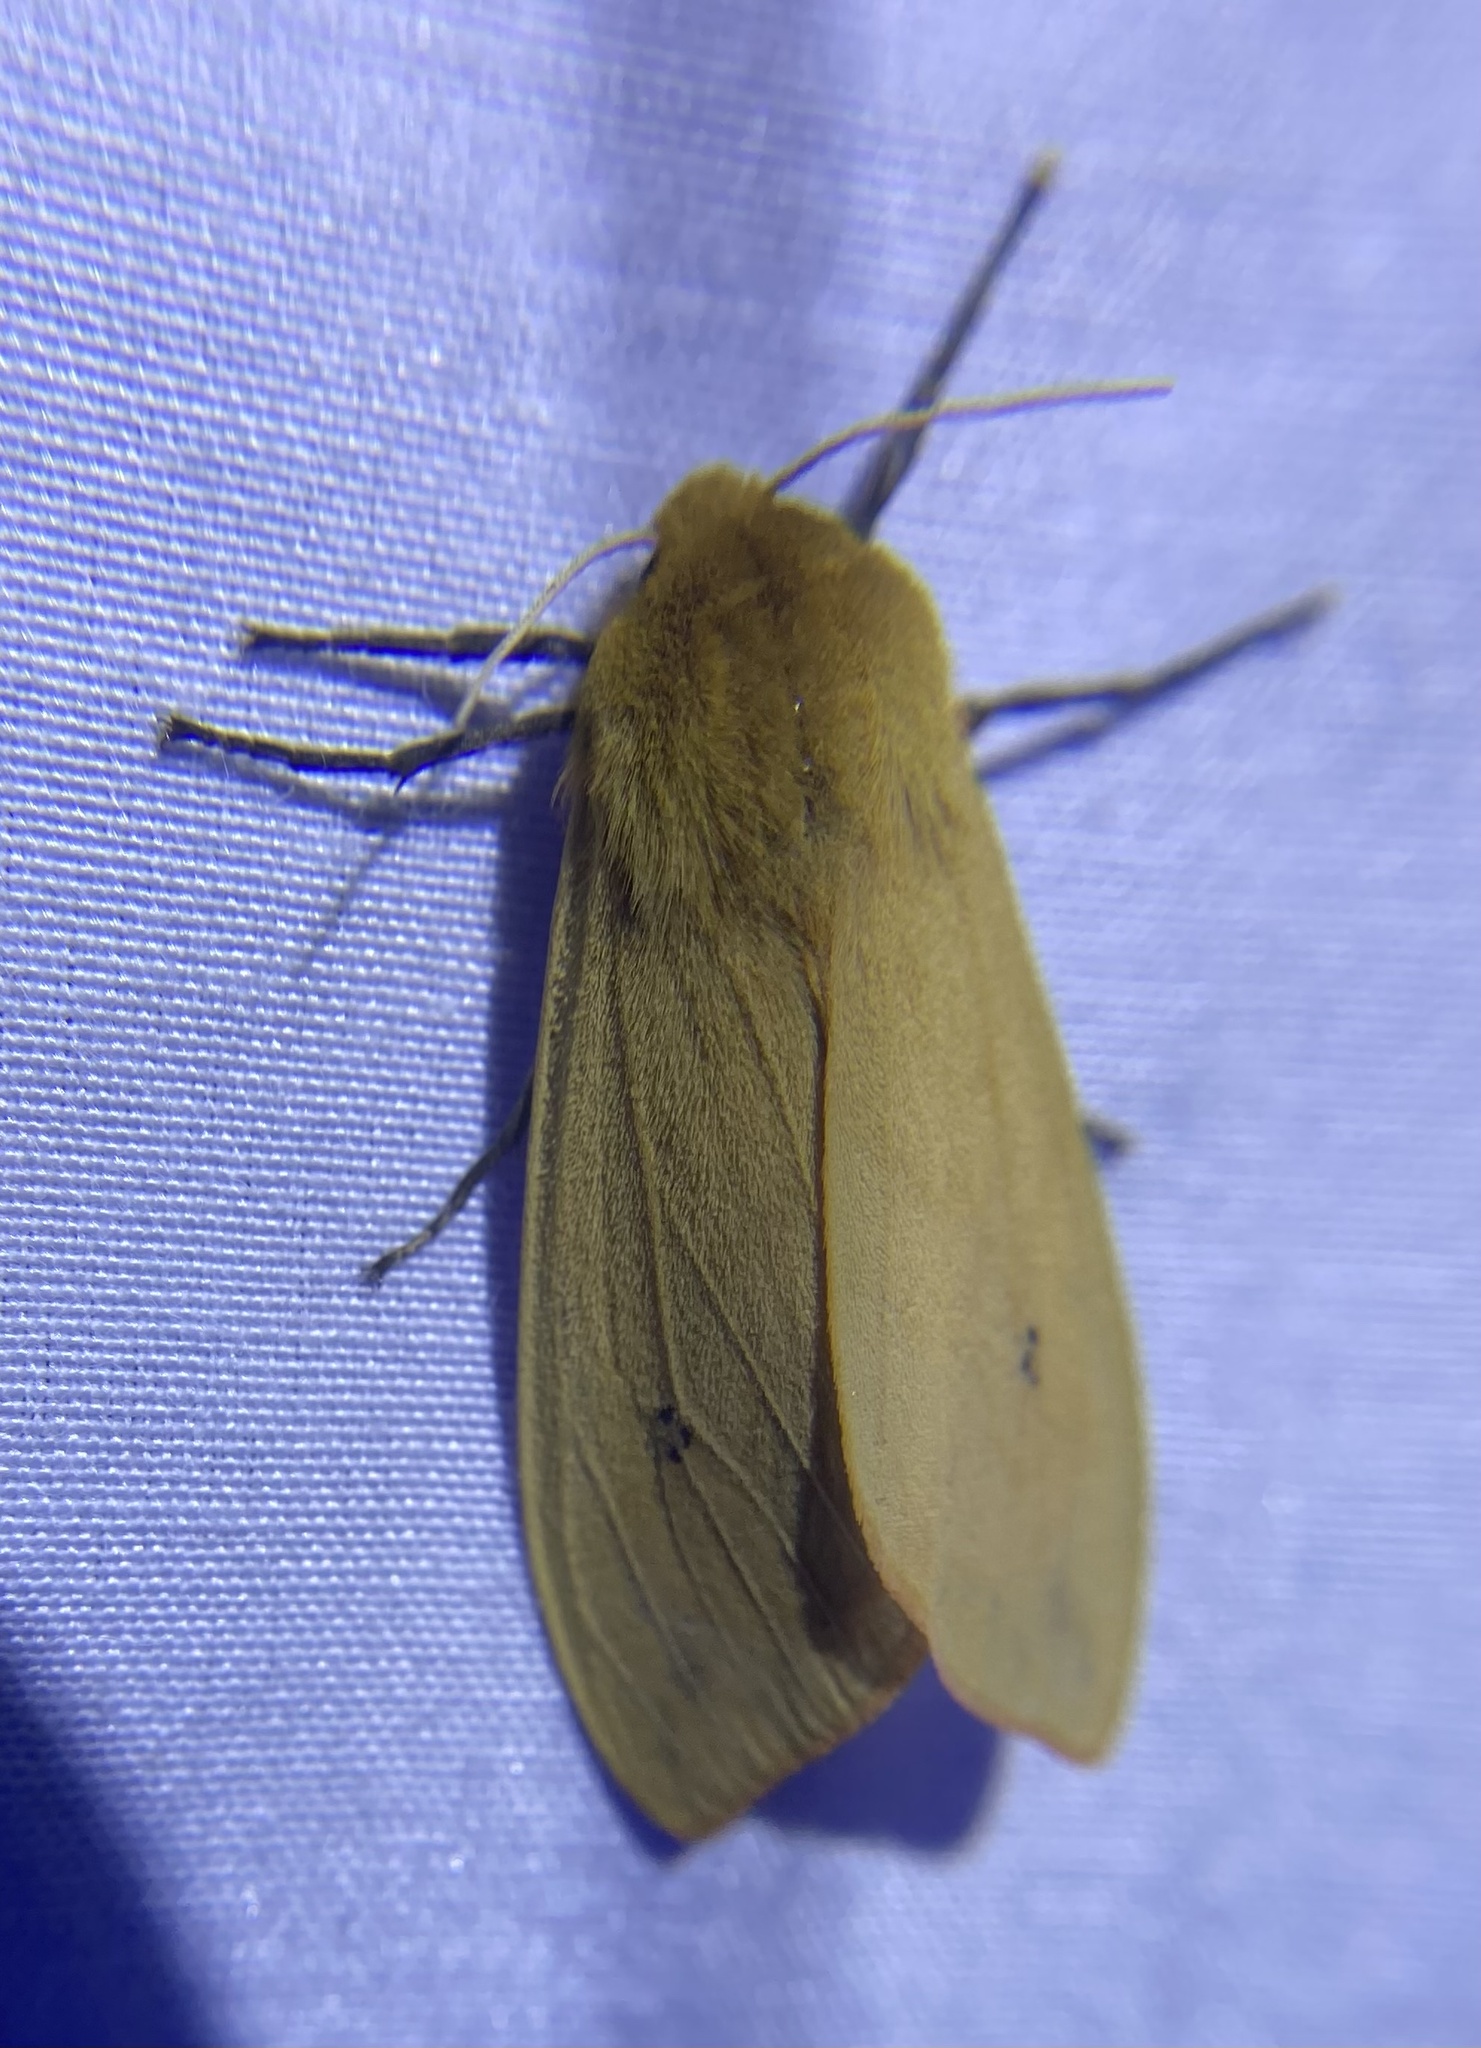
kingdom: Animalia
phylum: Arthropoda
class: Insecta
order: Lepidoptera
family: Erebidae
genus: Pyrrharctia
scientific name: Pyrrharctia isabella
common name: Isabella tiger moth
